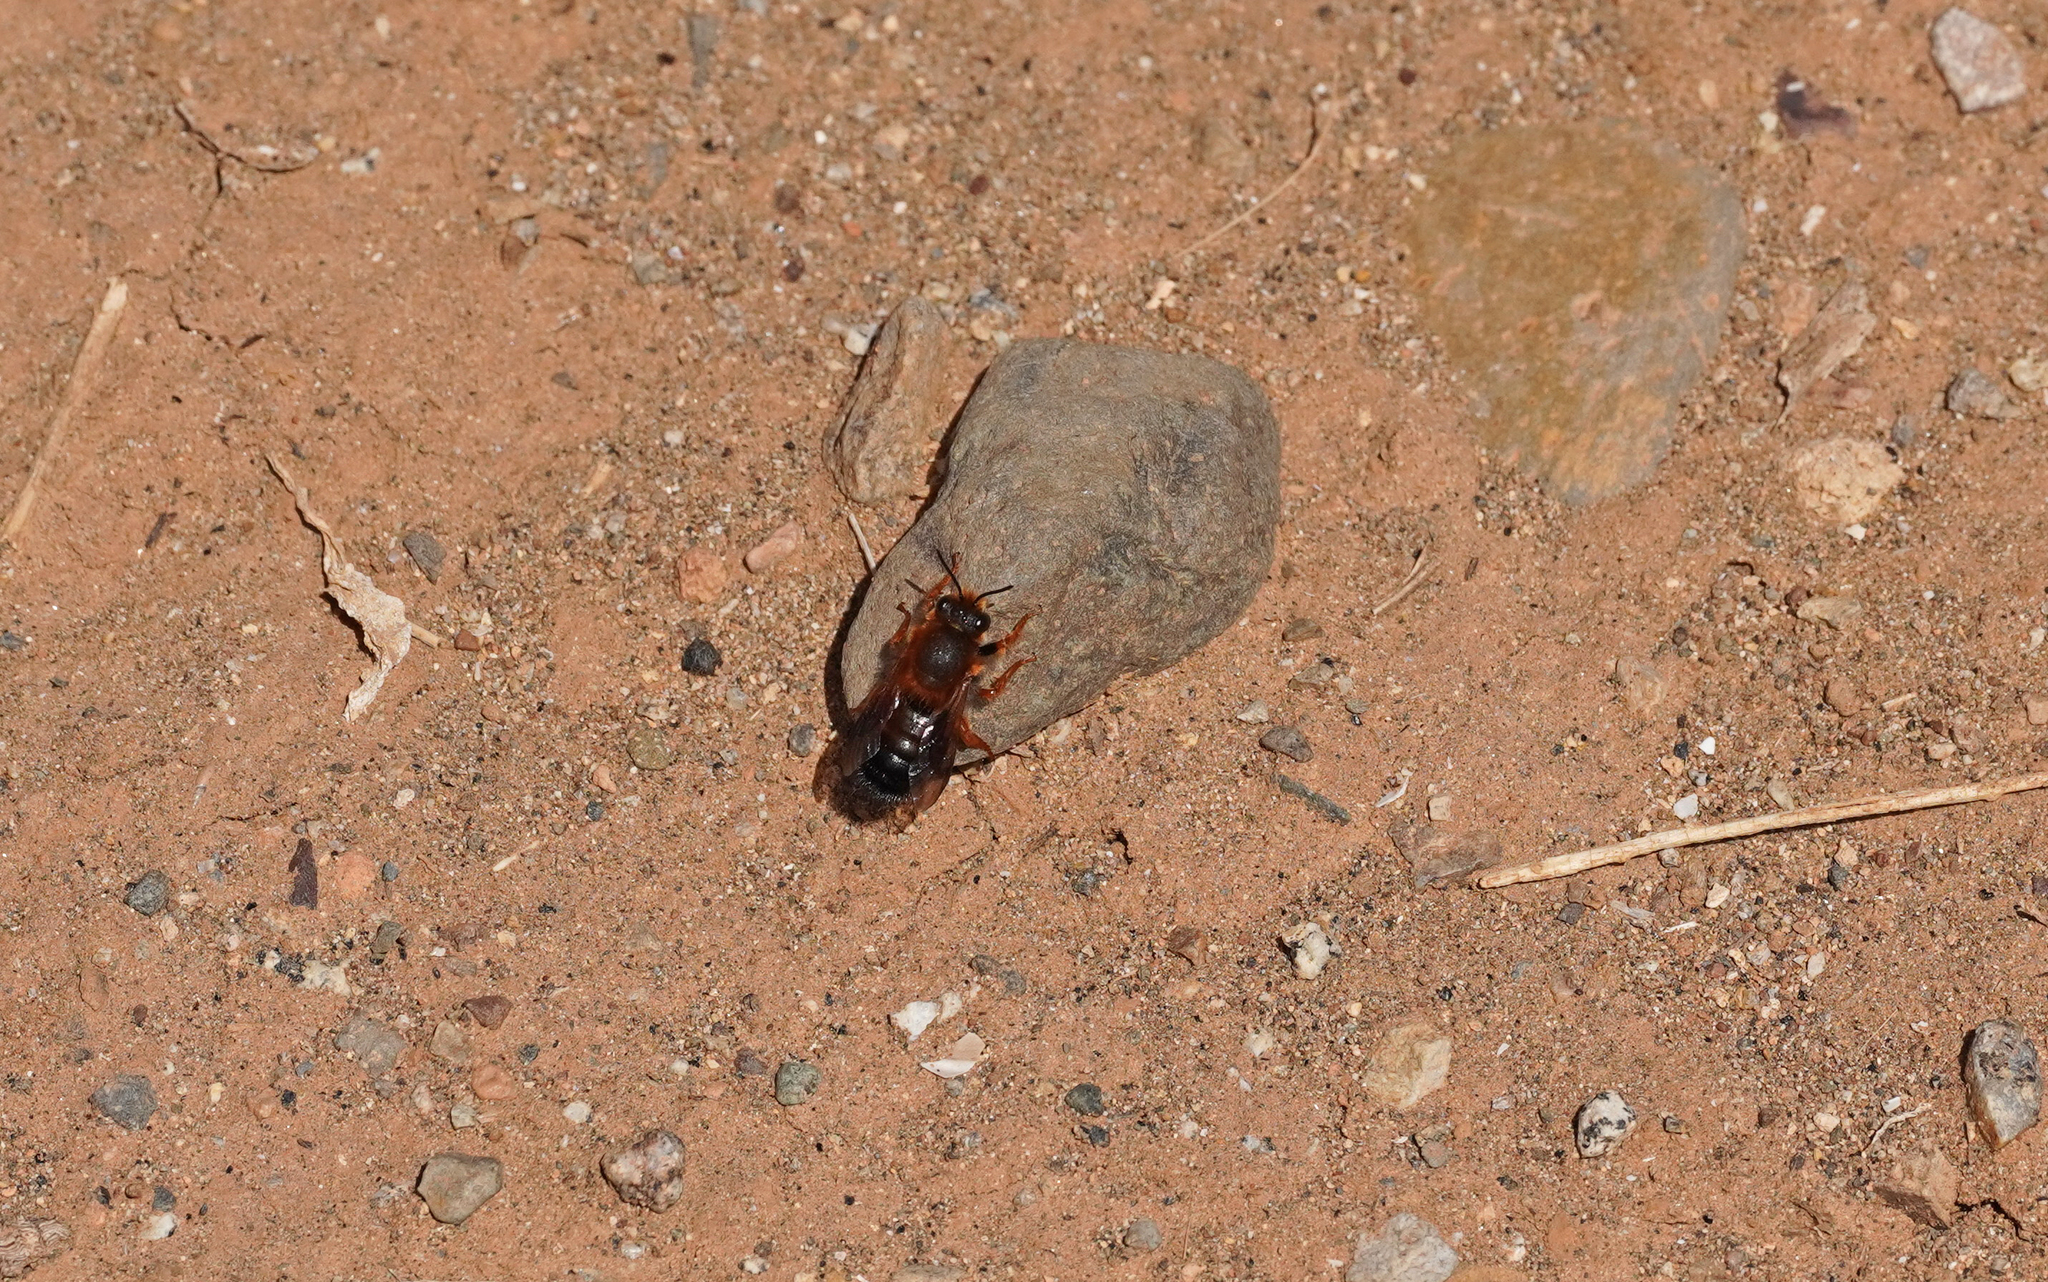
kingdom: Animalia
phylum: Arthropoda
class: Insecta
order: Hymenoptera
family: Megachilidae
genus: Megachile
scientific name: Megachile sicula
